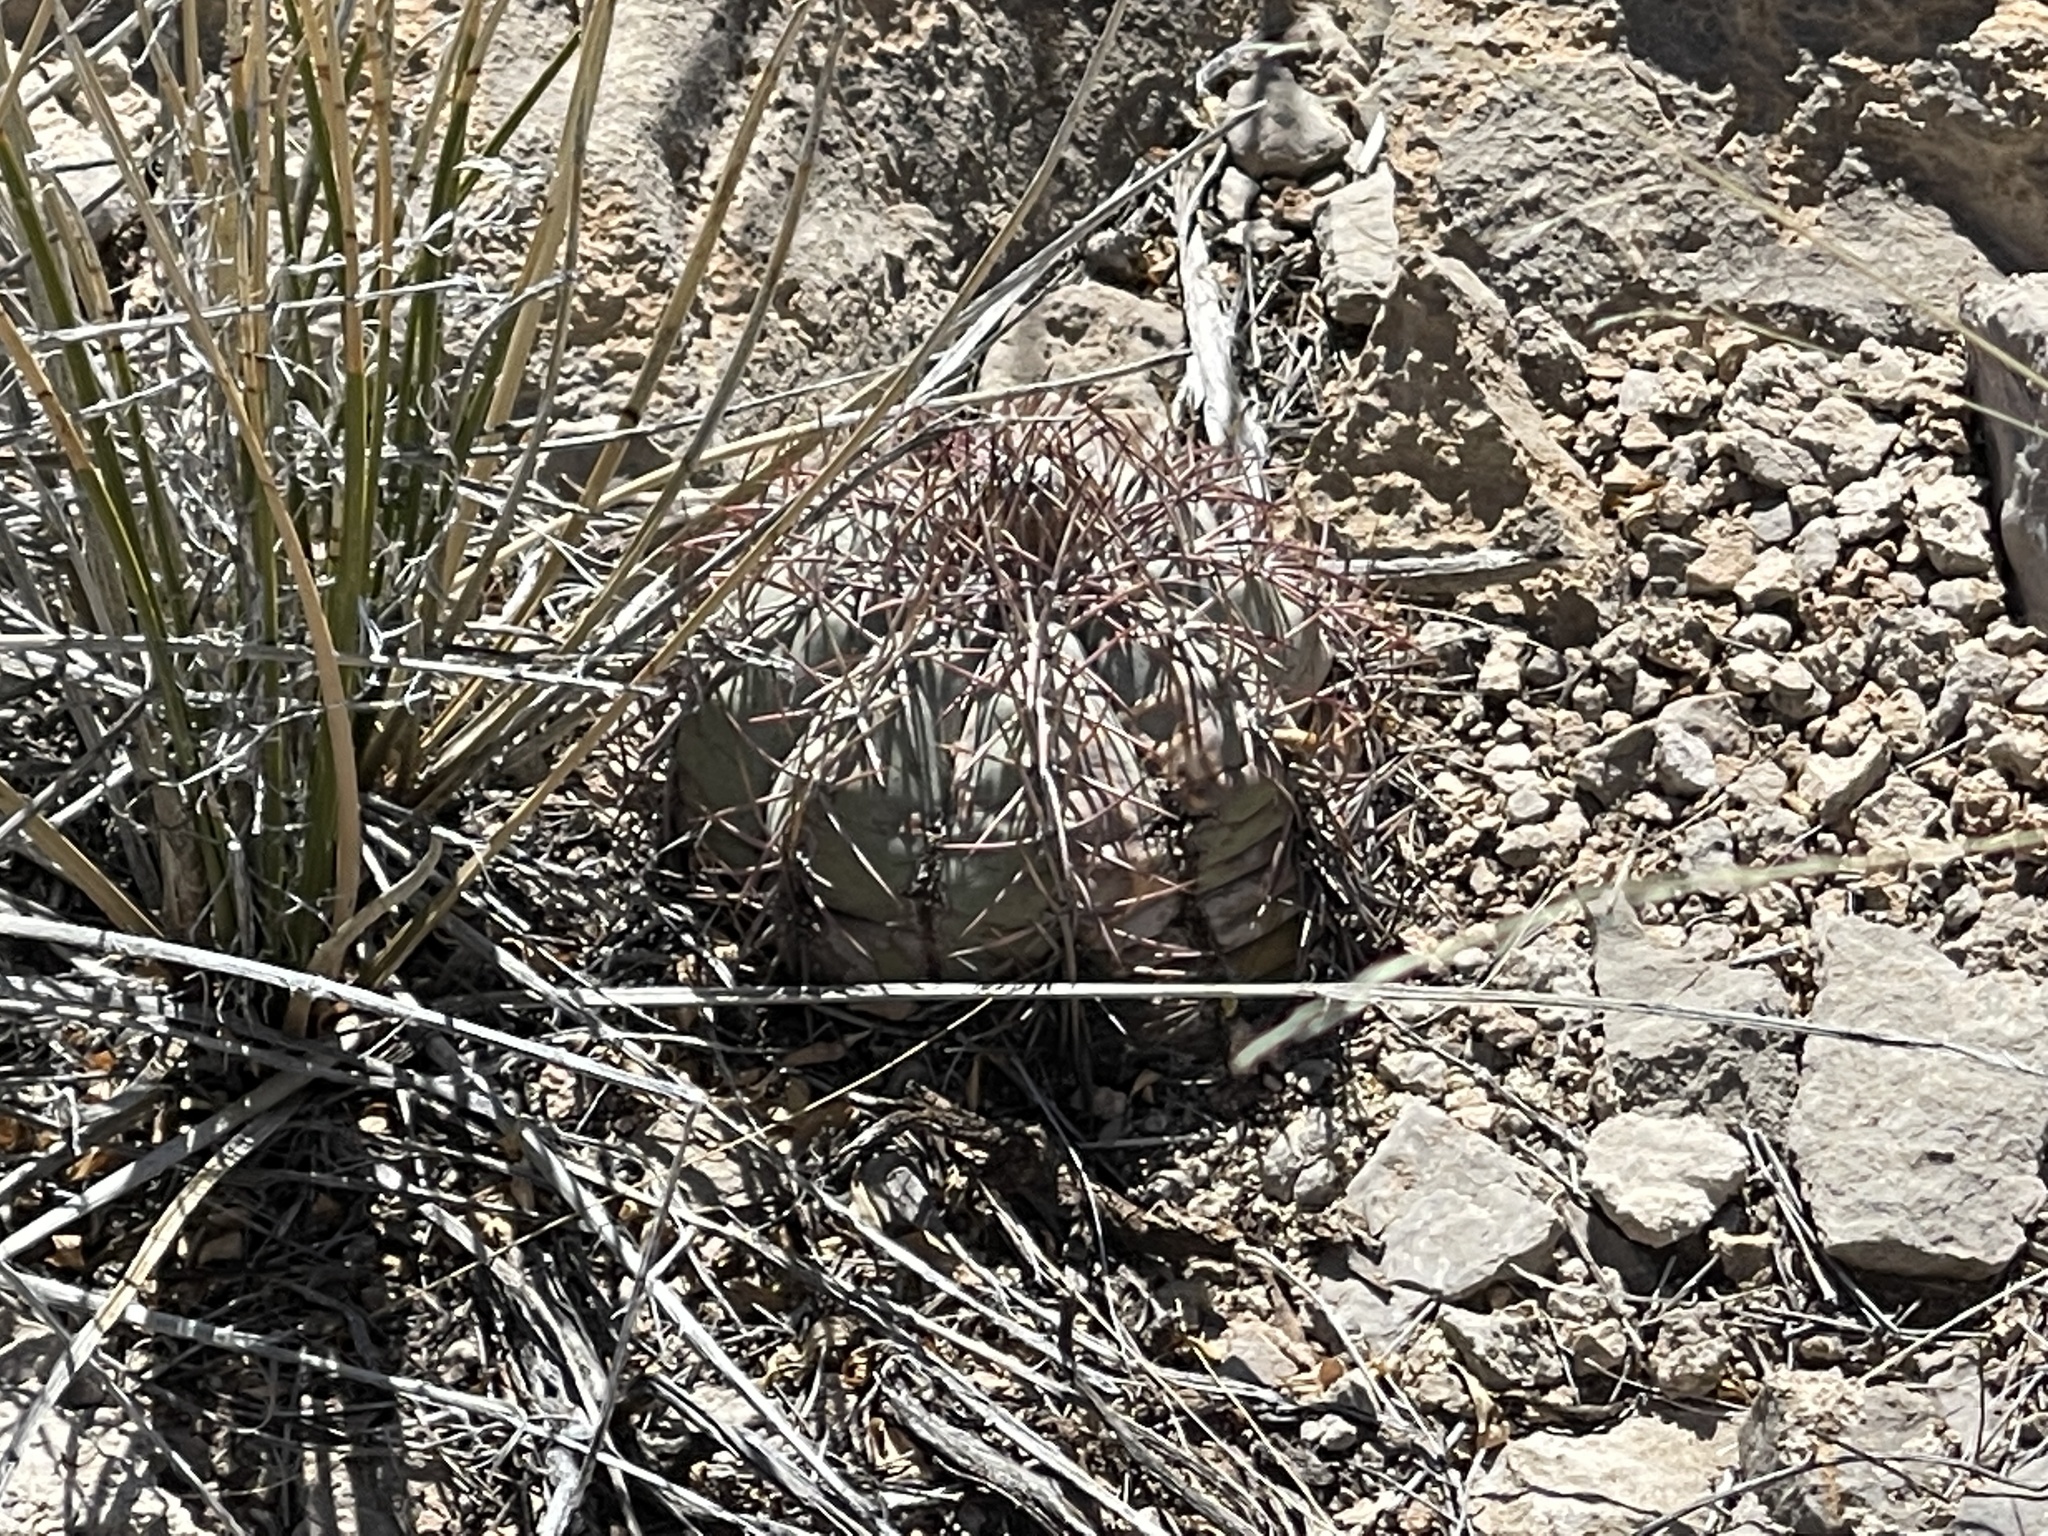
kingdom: Plantae
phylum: Tracheophyta
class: Magnoliopsida
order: Caryophyllales
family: Cactaceae
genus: Echinocactus
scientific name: Echinocactus horizonthalonius
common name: Devilshead
